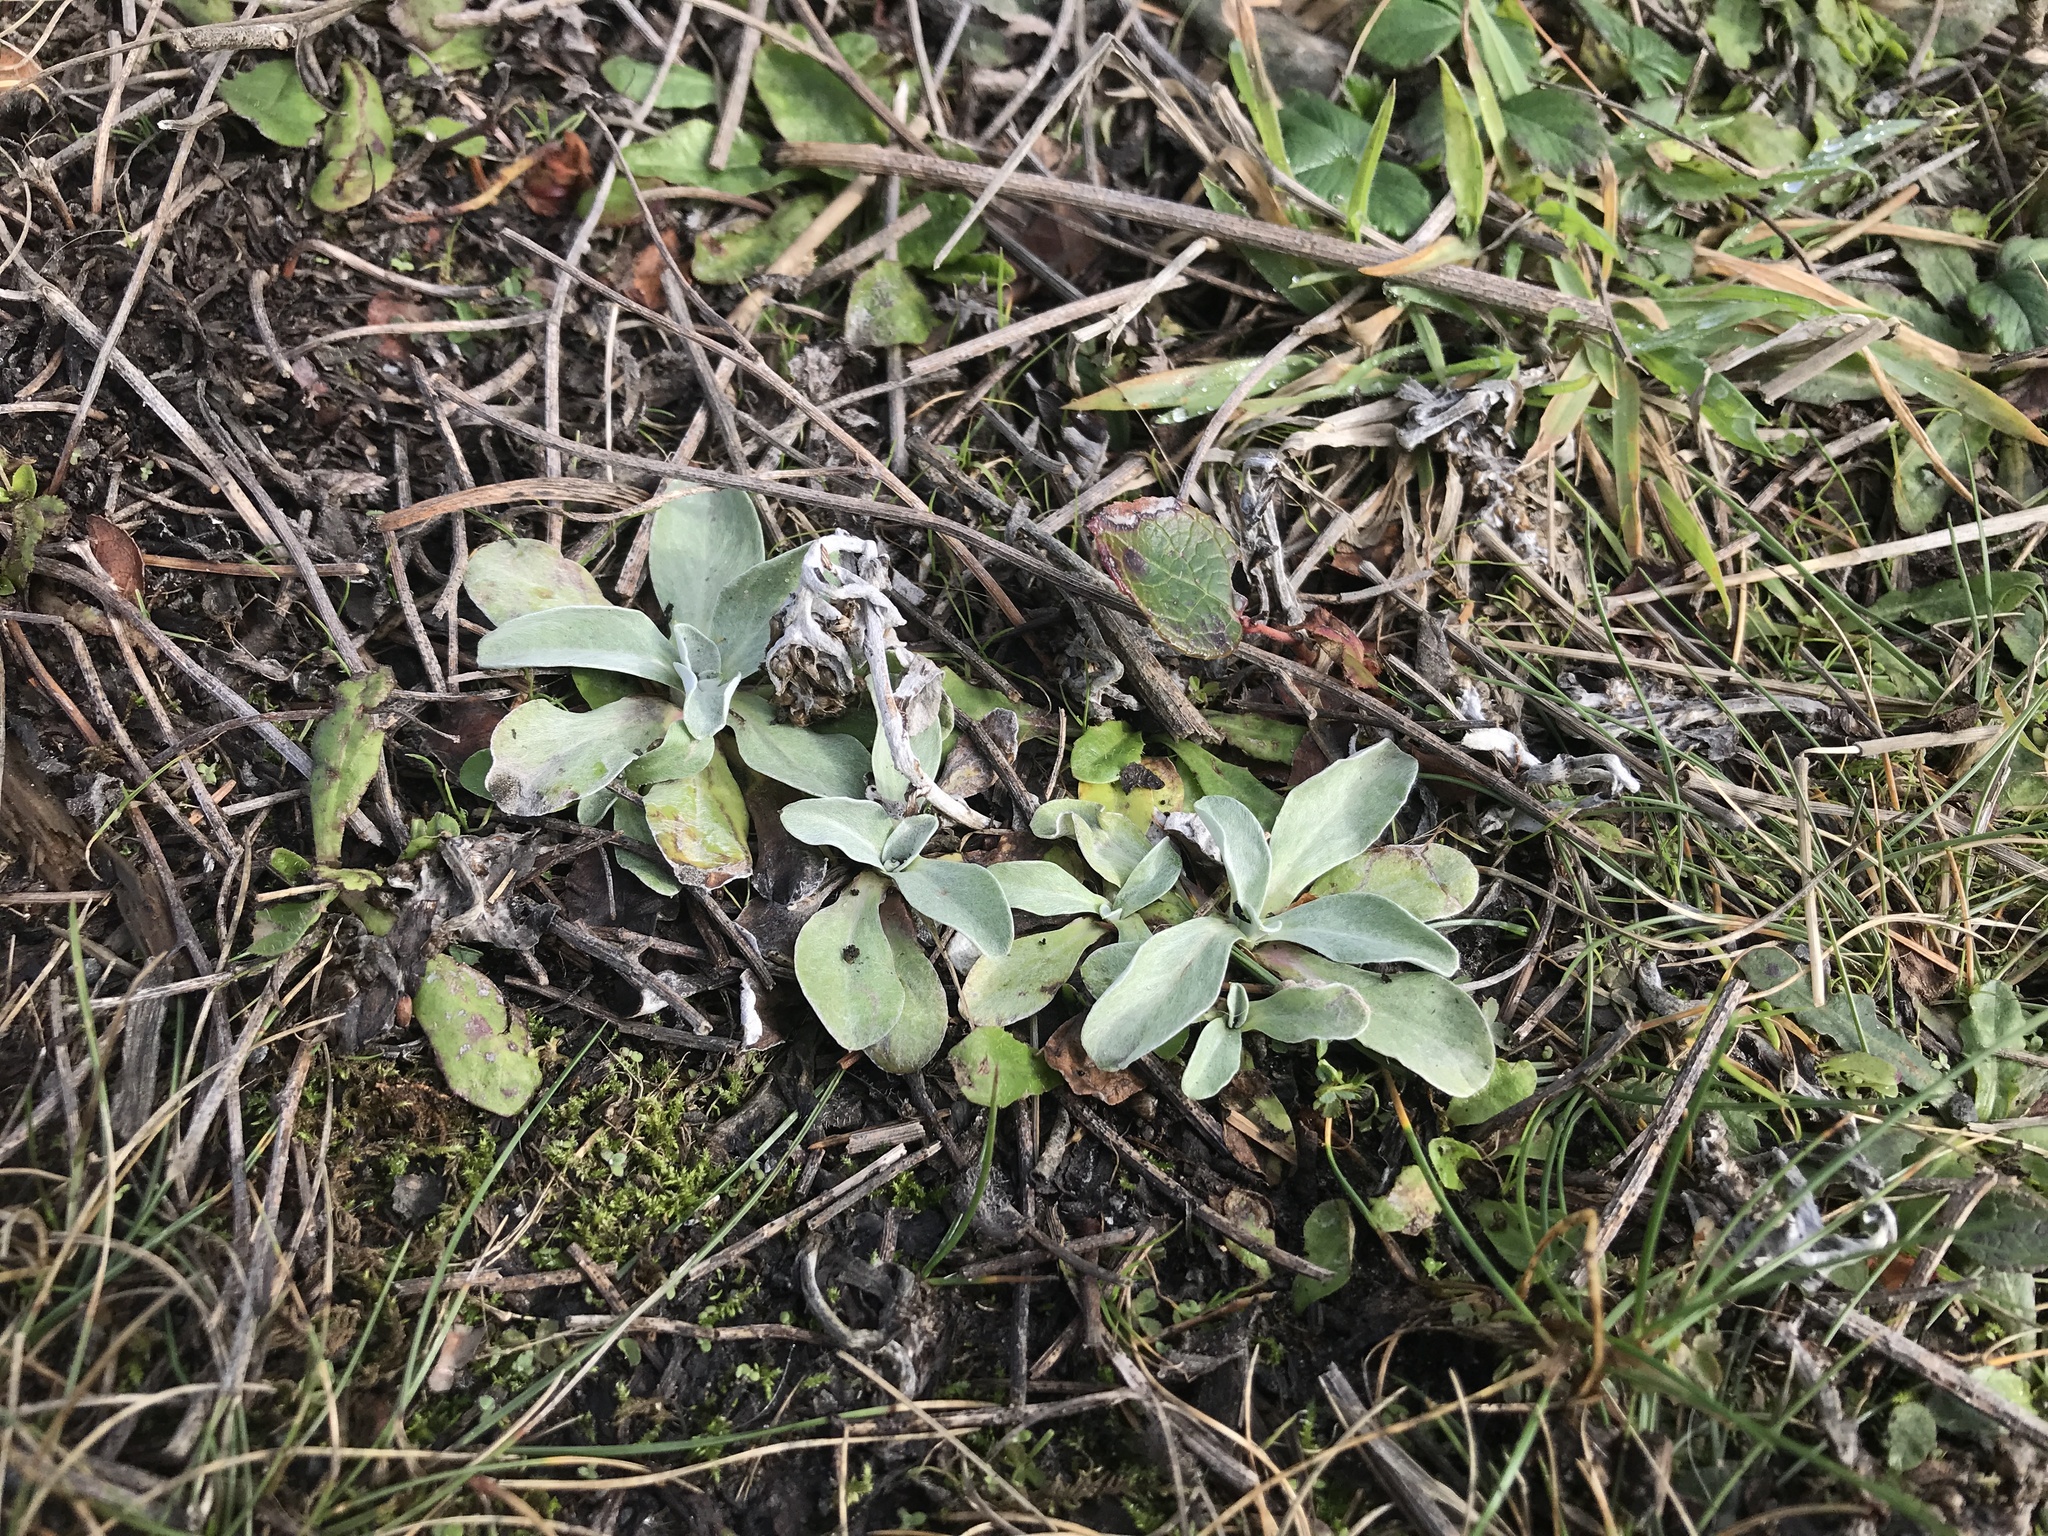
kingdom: Plantae
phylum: Tracheophyta
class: Magnoliopsida
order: Asterales
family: Asteraceae
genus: Gamochaeta
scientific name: Gamochaeta purpurea
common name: Purple cudweed
